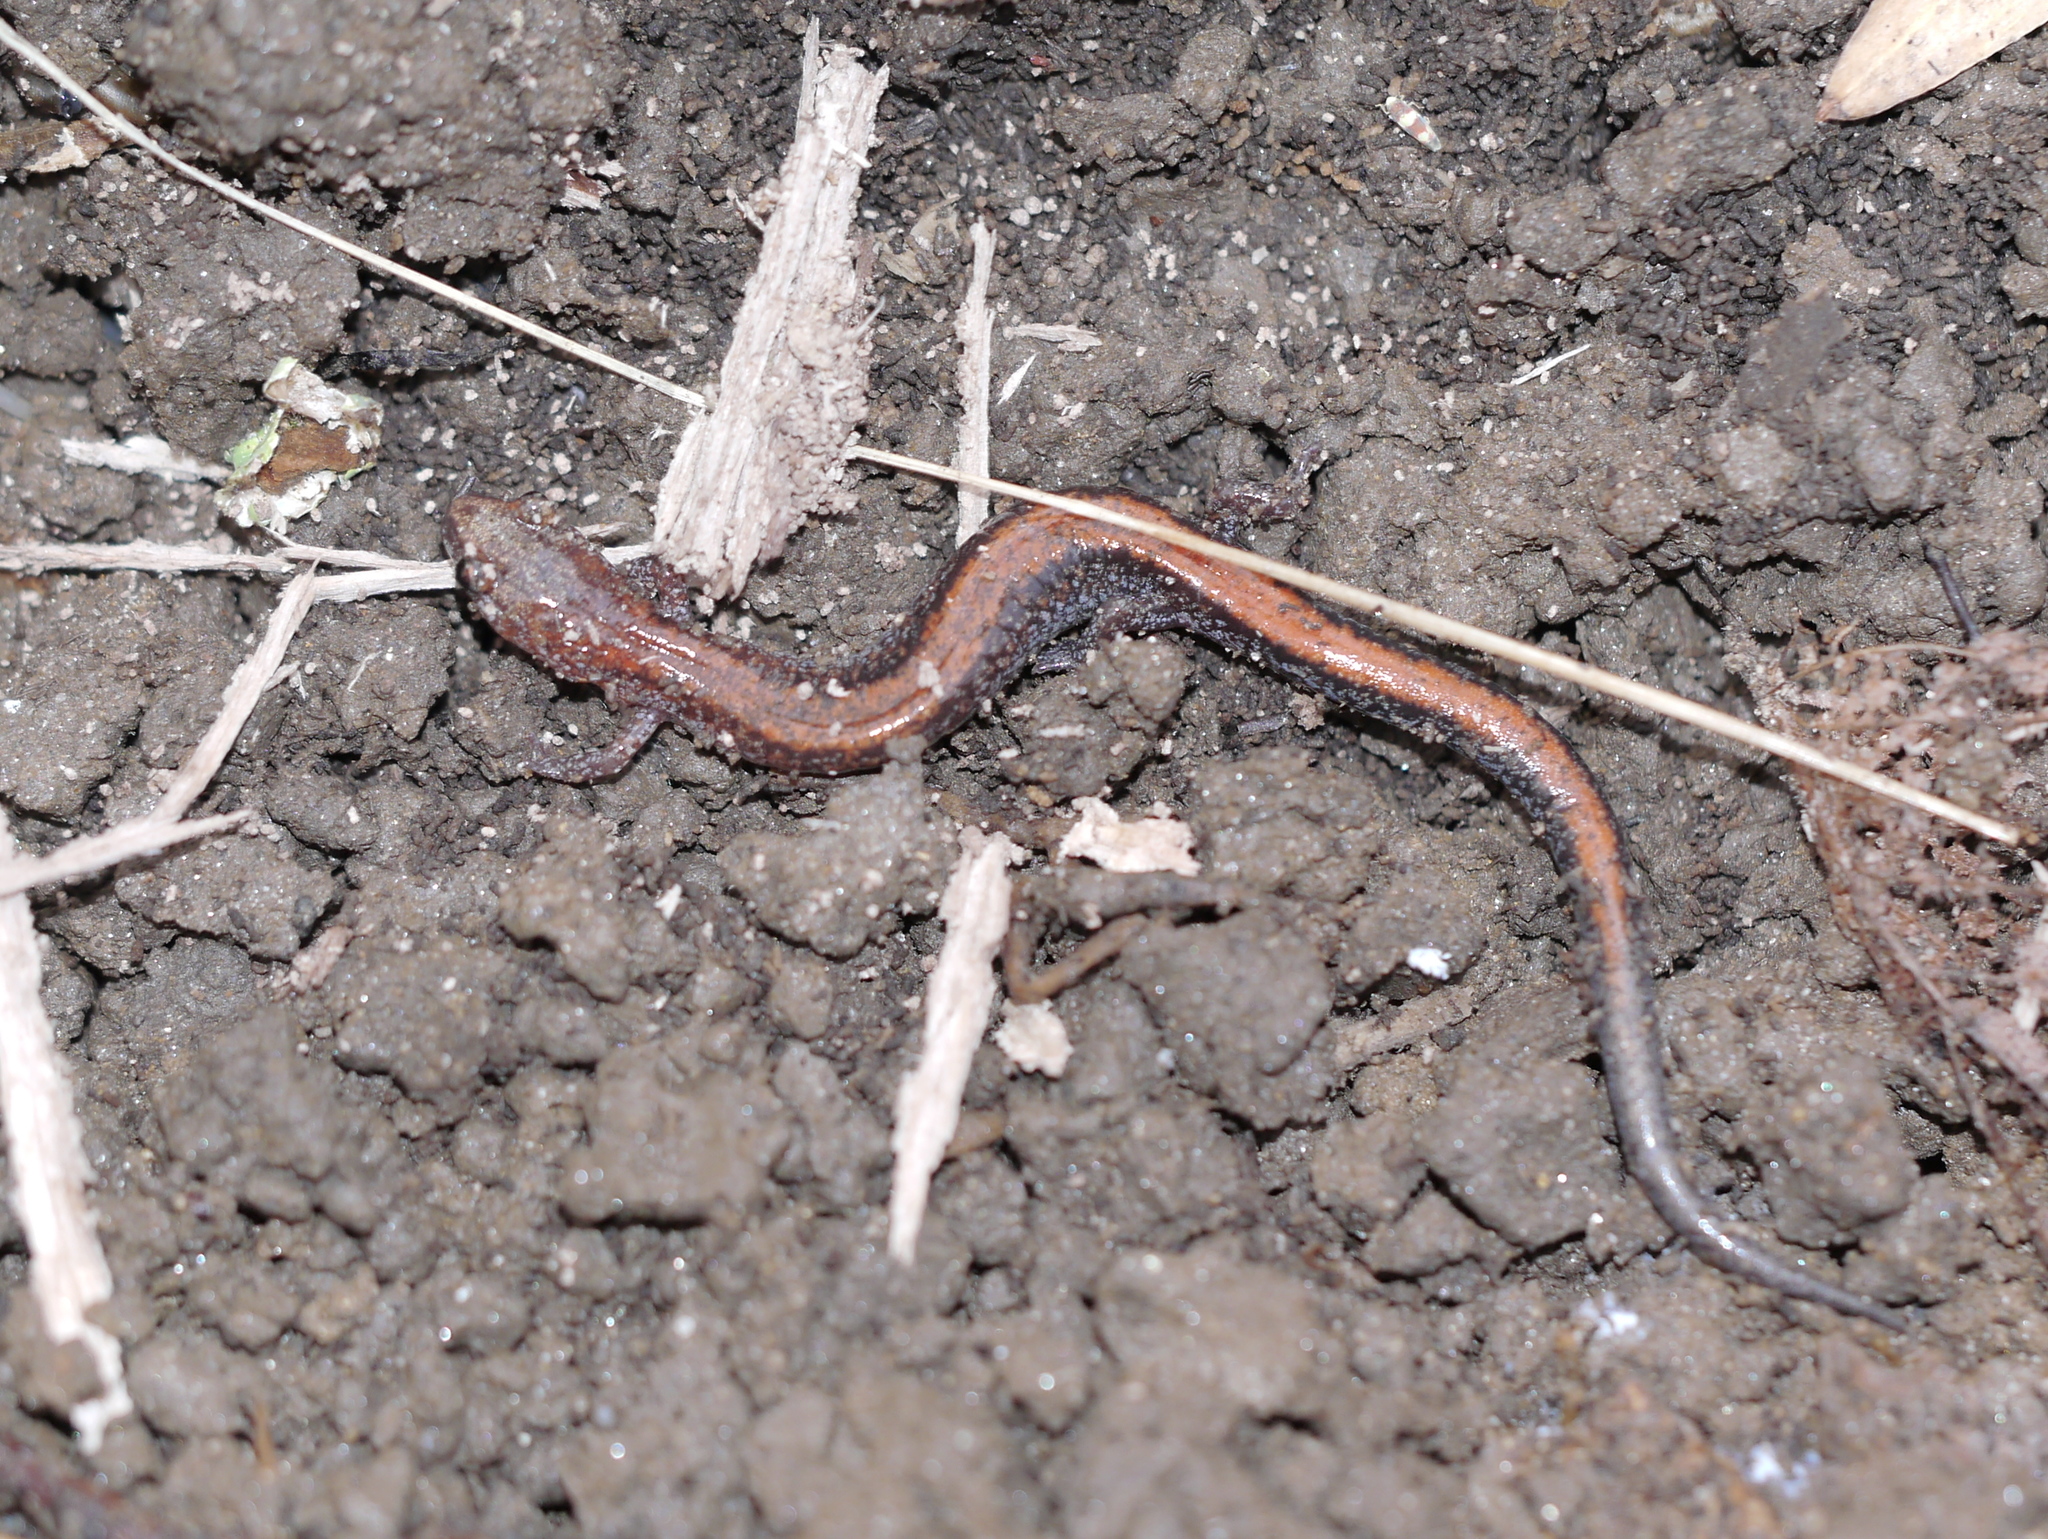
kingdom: Animalia
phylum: Chordata
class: Amphibia
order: Caudata
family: Plethodontidae
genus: Plethodon
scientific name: Plethodon cinereus
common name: Redback salamander
